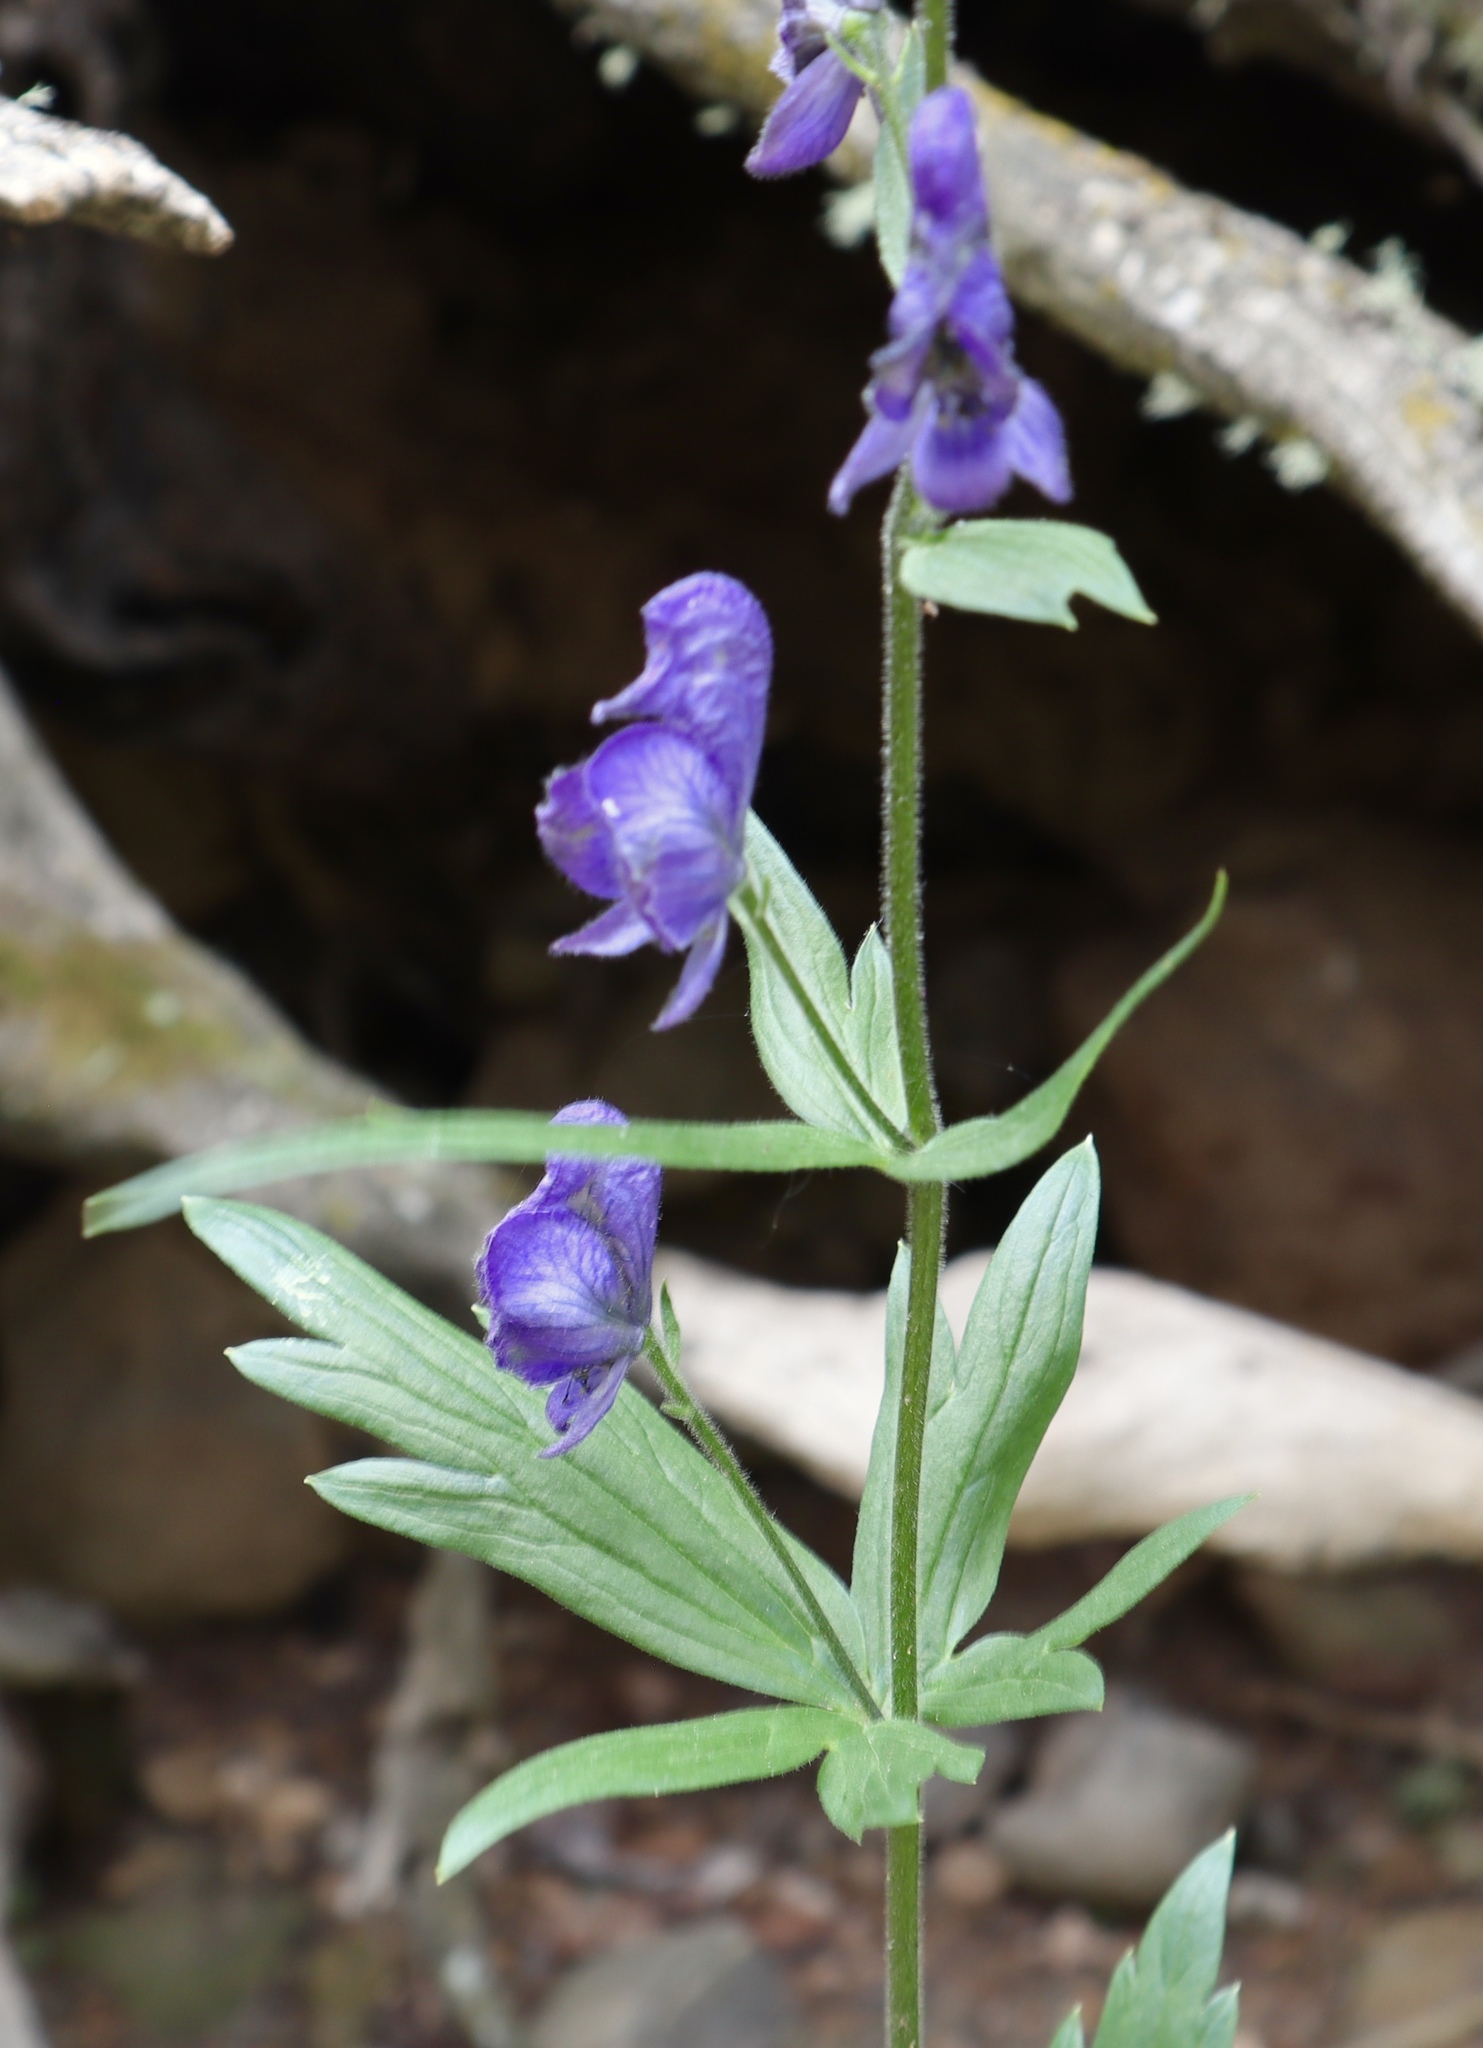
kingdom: Plantae
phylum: Tracheophyta
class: Magnoliopsida
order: Ranunculales
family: Ranunculaceae
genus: Aconitum
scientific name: Aconitum columbianum
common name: Columbia aconite
